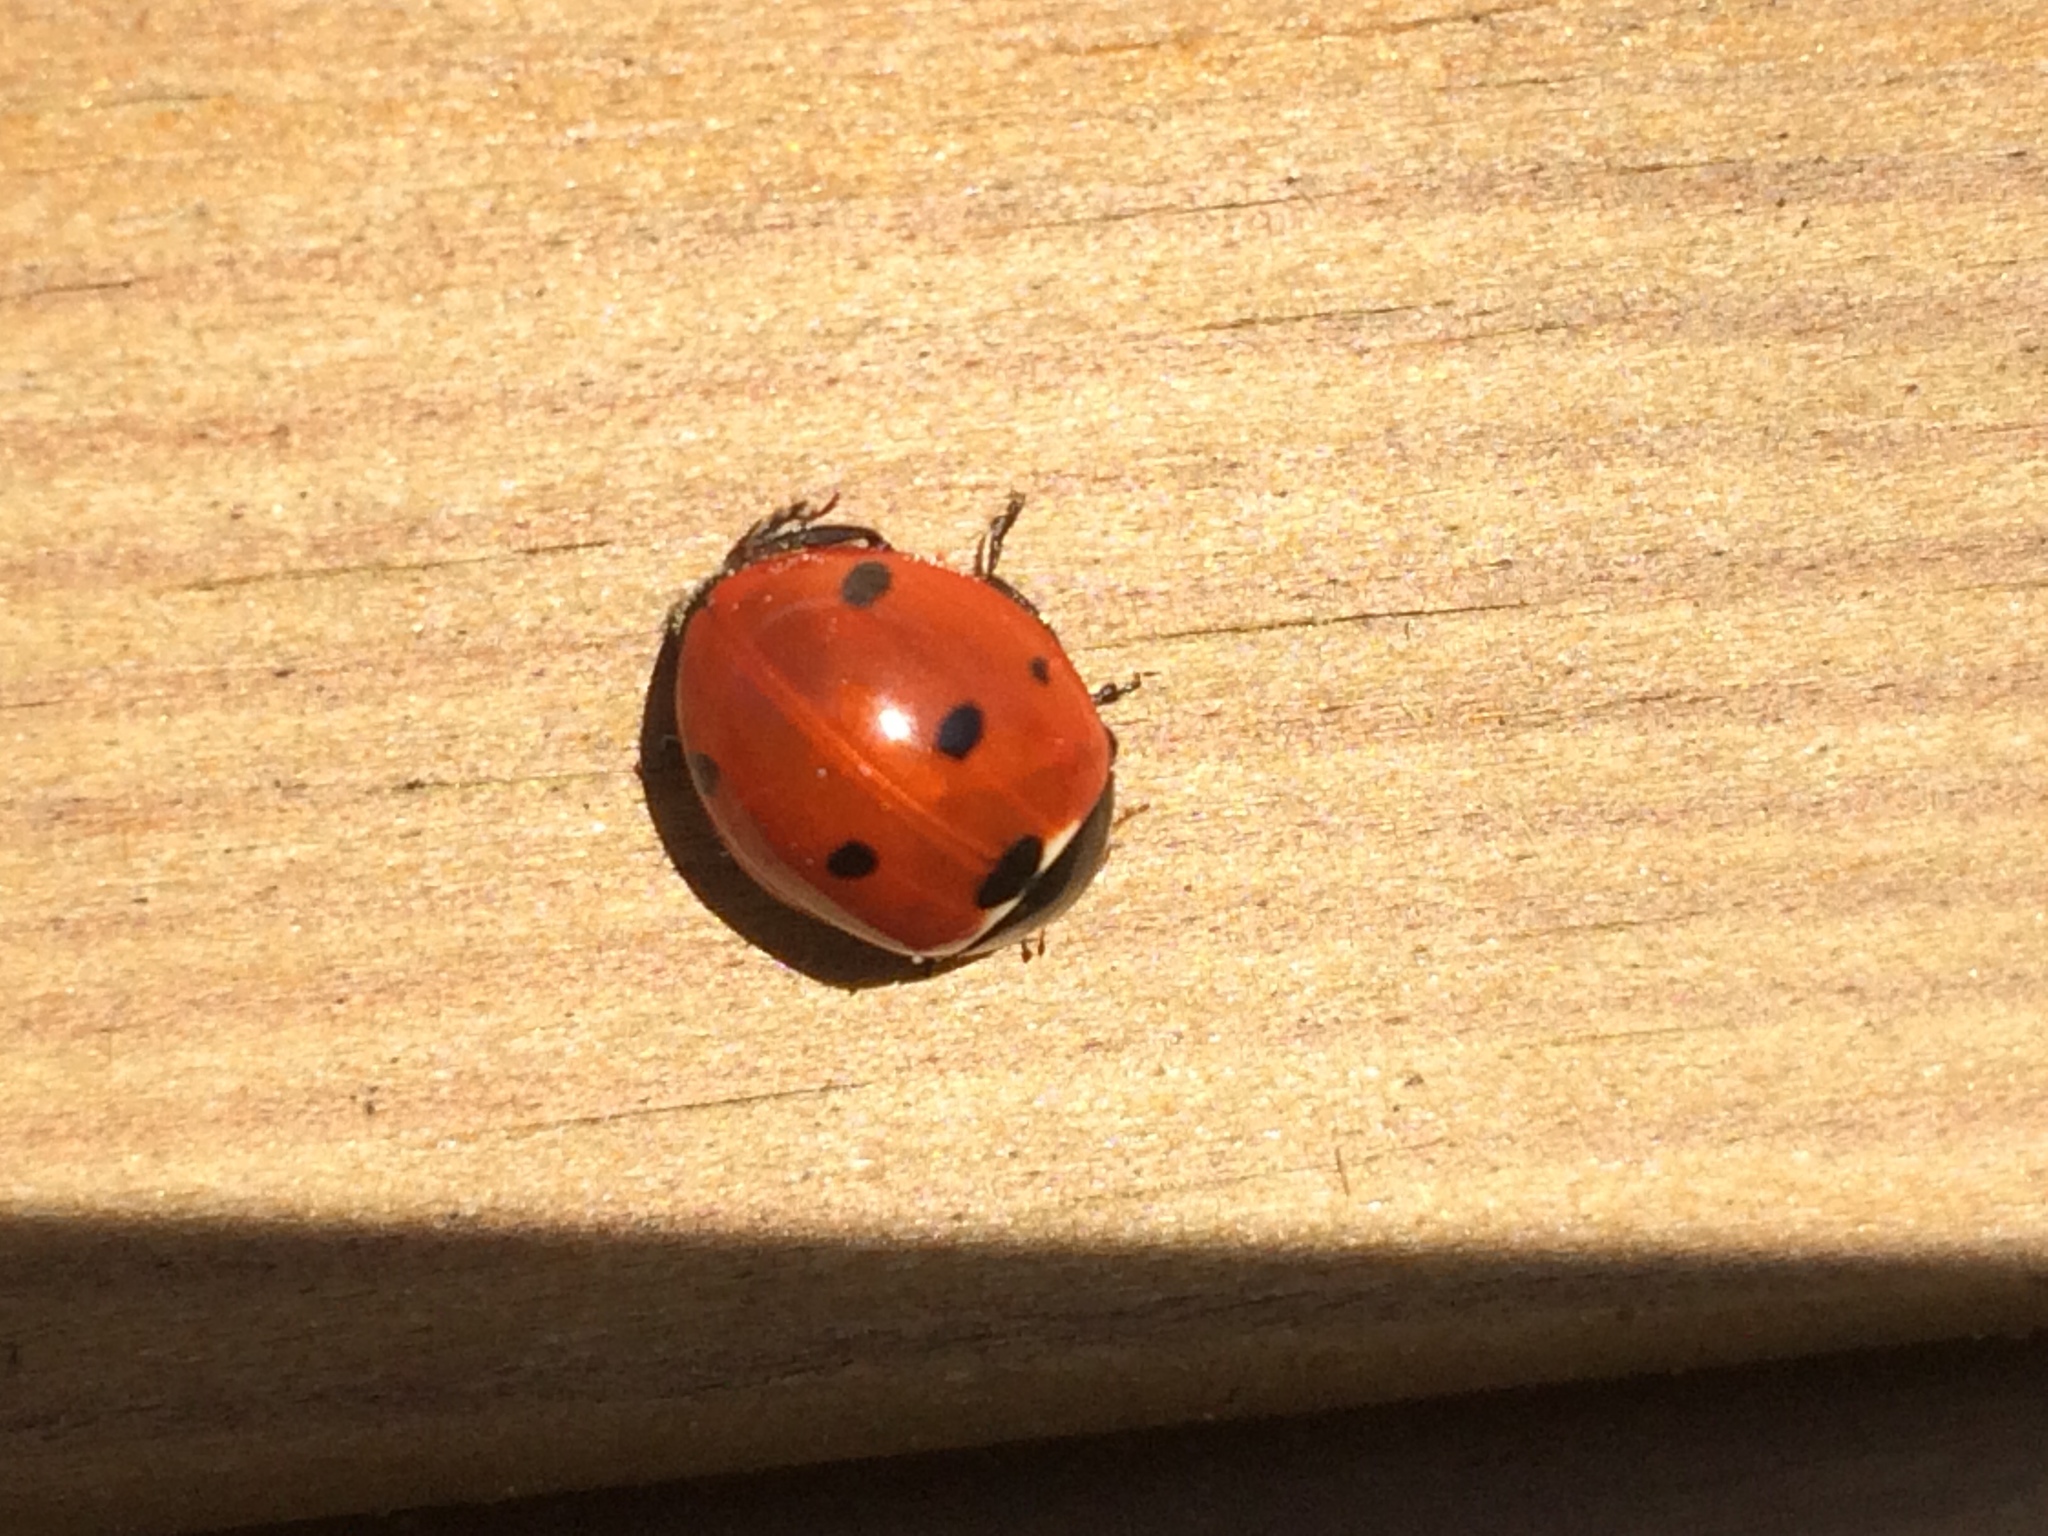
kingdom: Animalia
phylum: Arthropoda
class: Insecta
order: Coleoptera
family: Coccinellidae
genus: Coccinella
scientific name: Coccinella septempunctata
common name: Sevenspotted lady beetle
